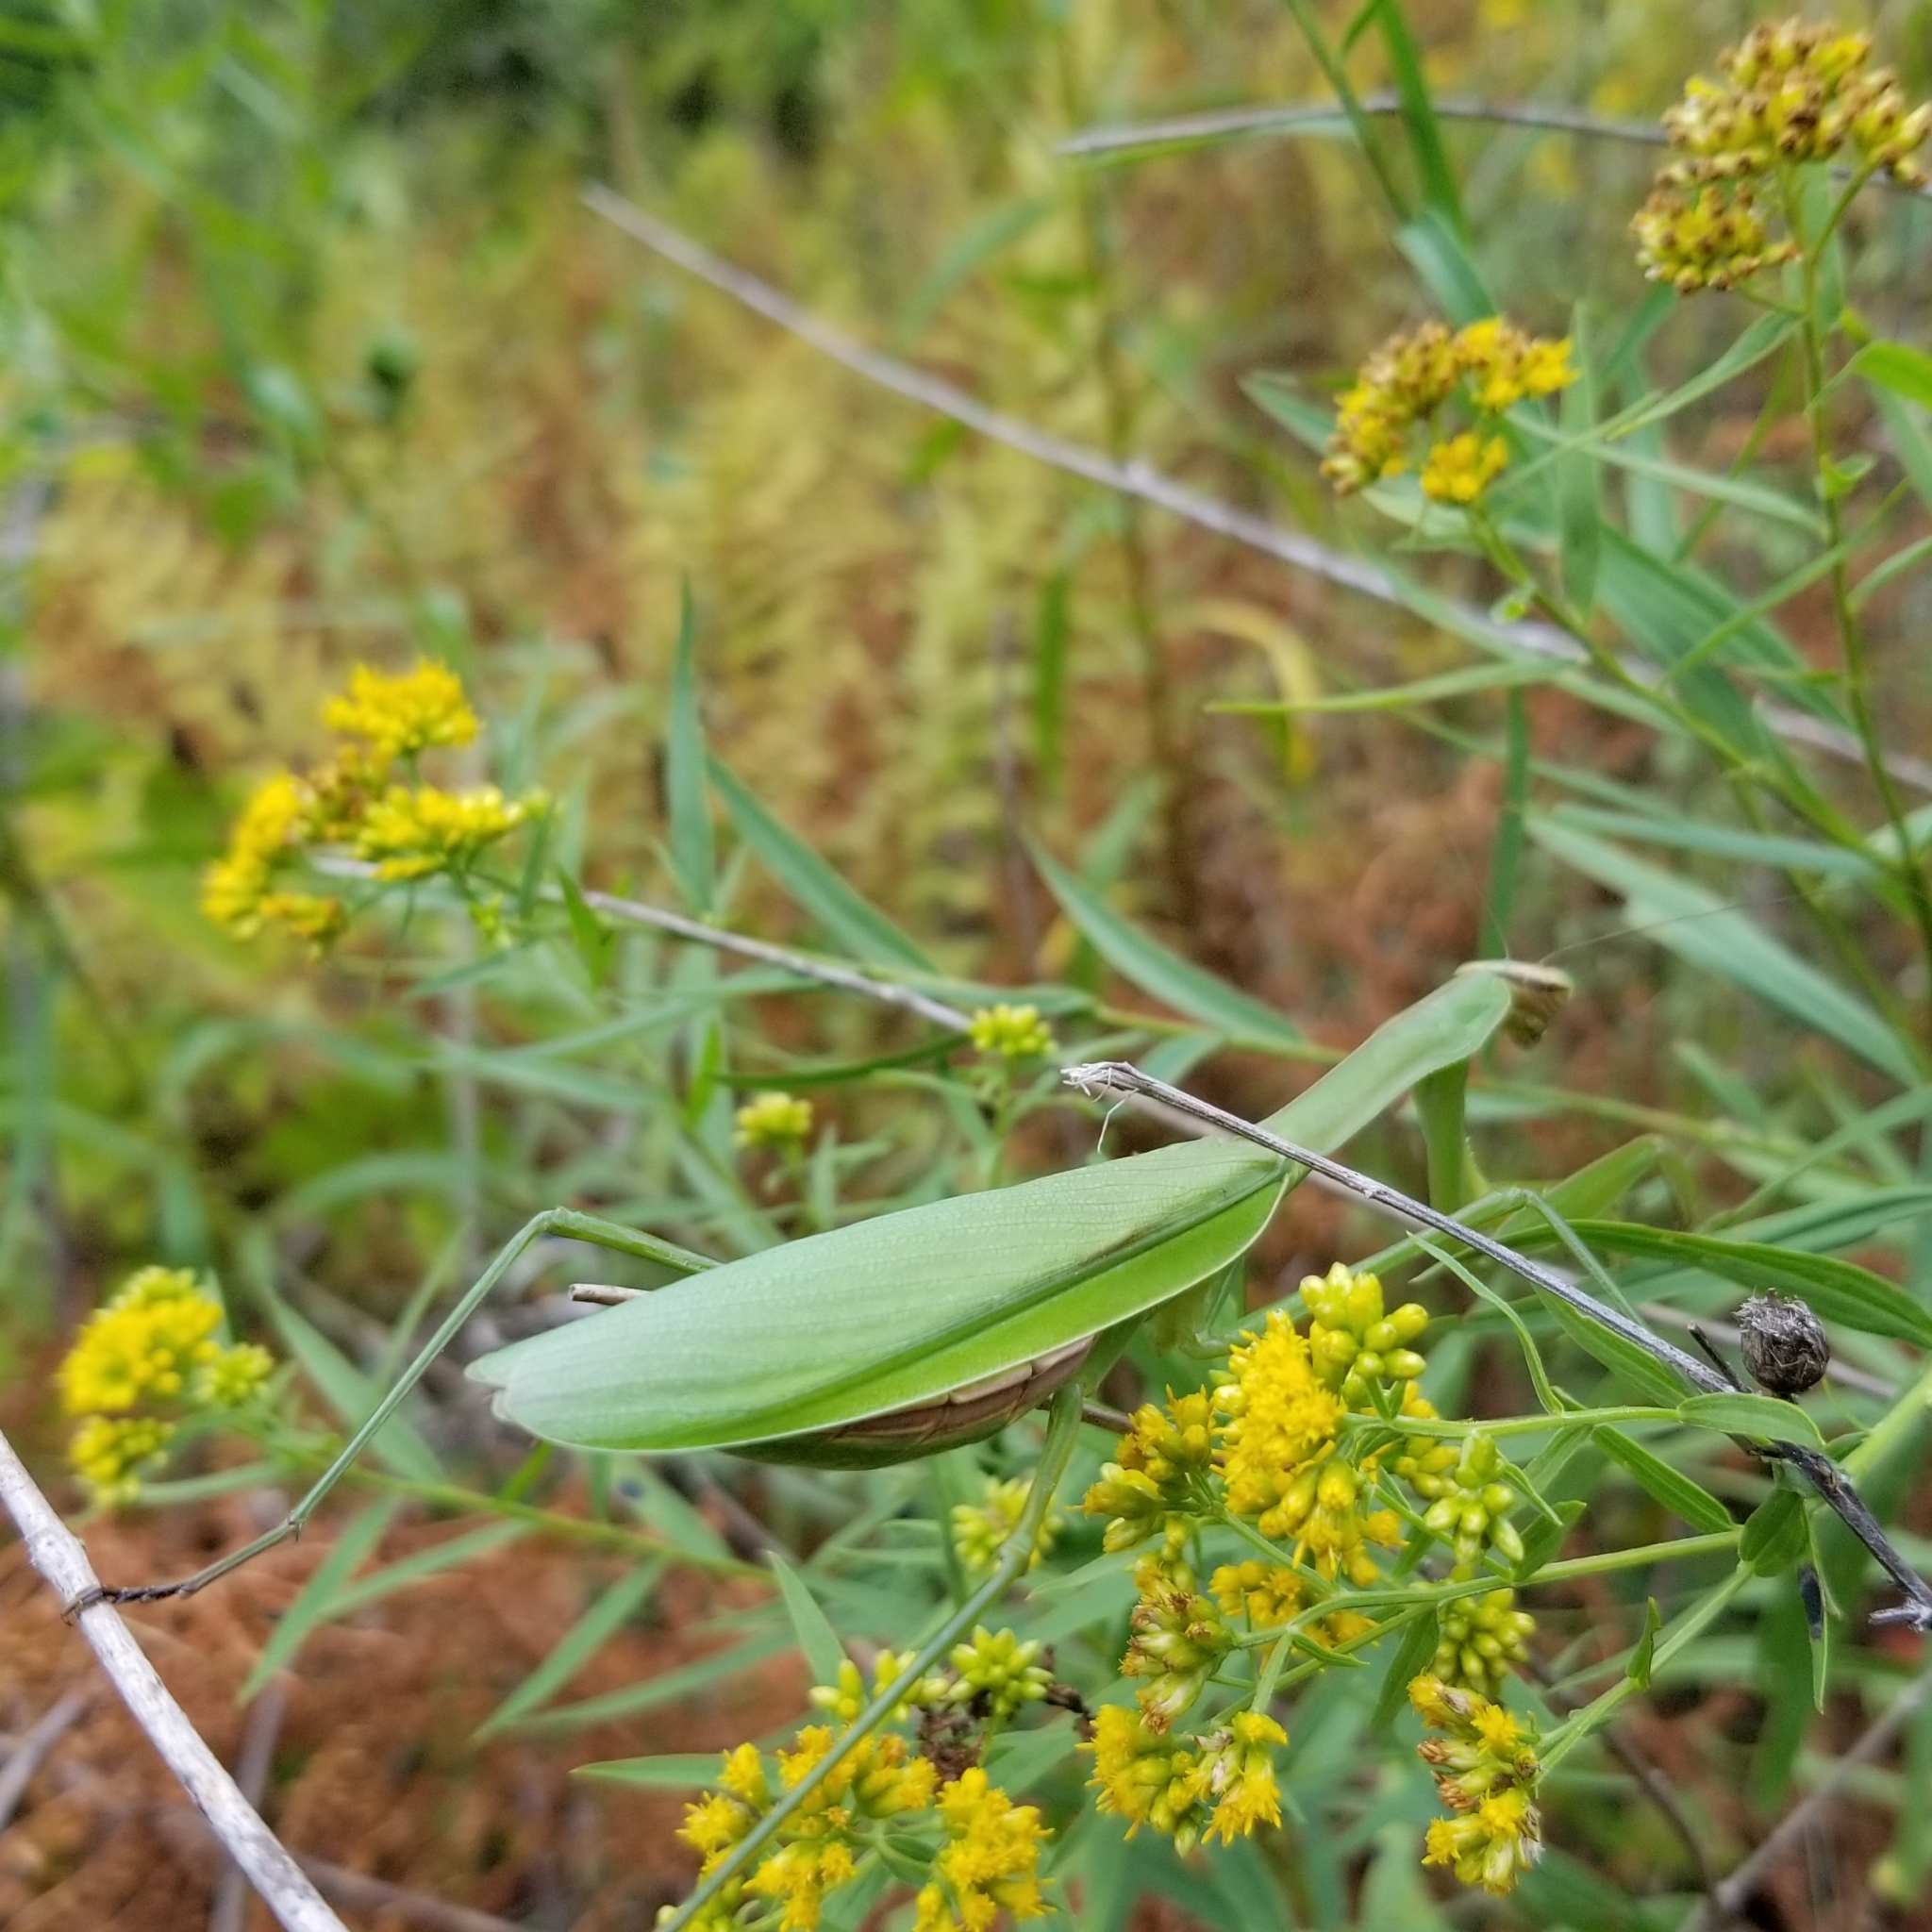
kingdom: Animalia
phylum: Arthropoda
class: Insecta
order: Mantodea
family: Mantidae
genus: Tenodera
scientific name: Tenodera sinensis
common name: Chinese mantis
